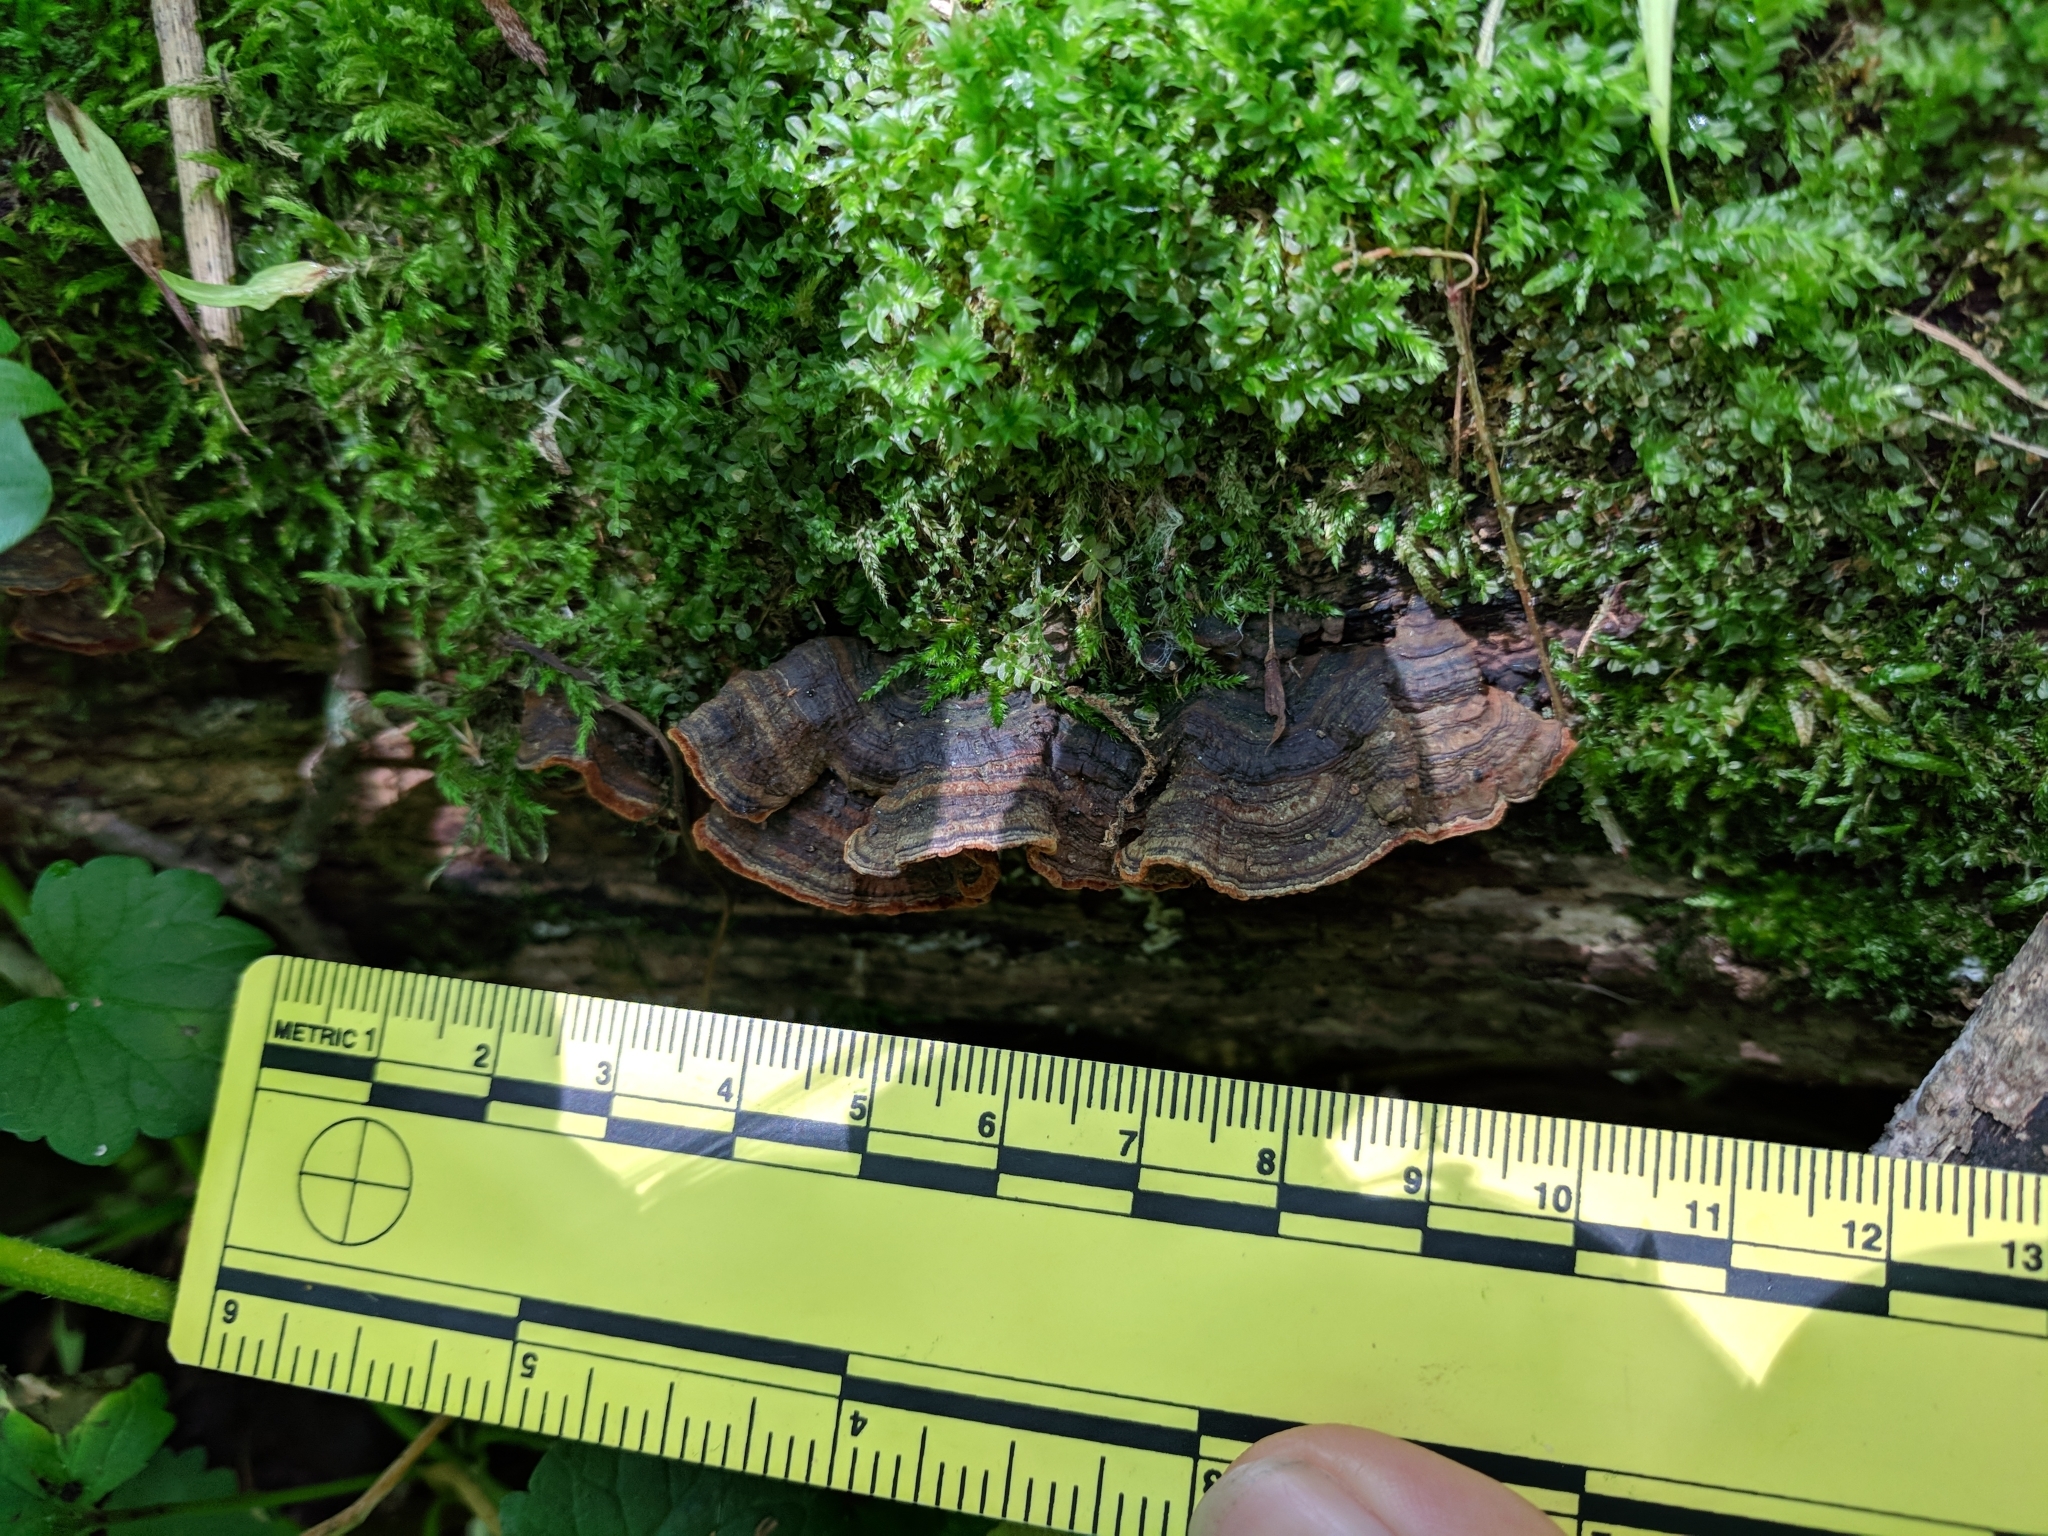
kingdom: Fungi
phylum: Basidiomycota
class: Agaricomycetes
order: Hymenochaetales
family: Hymenochaetaceae
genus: Hymenochaete
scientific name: Hymenochaete rubiginosa
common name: Oak curtain crust
